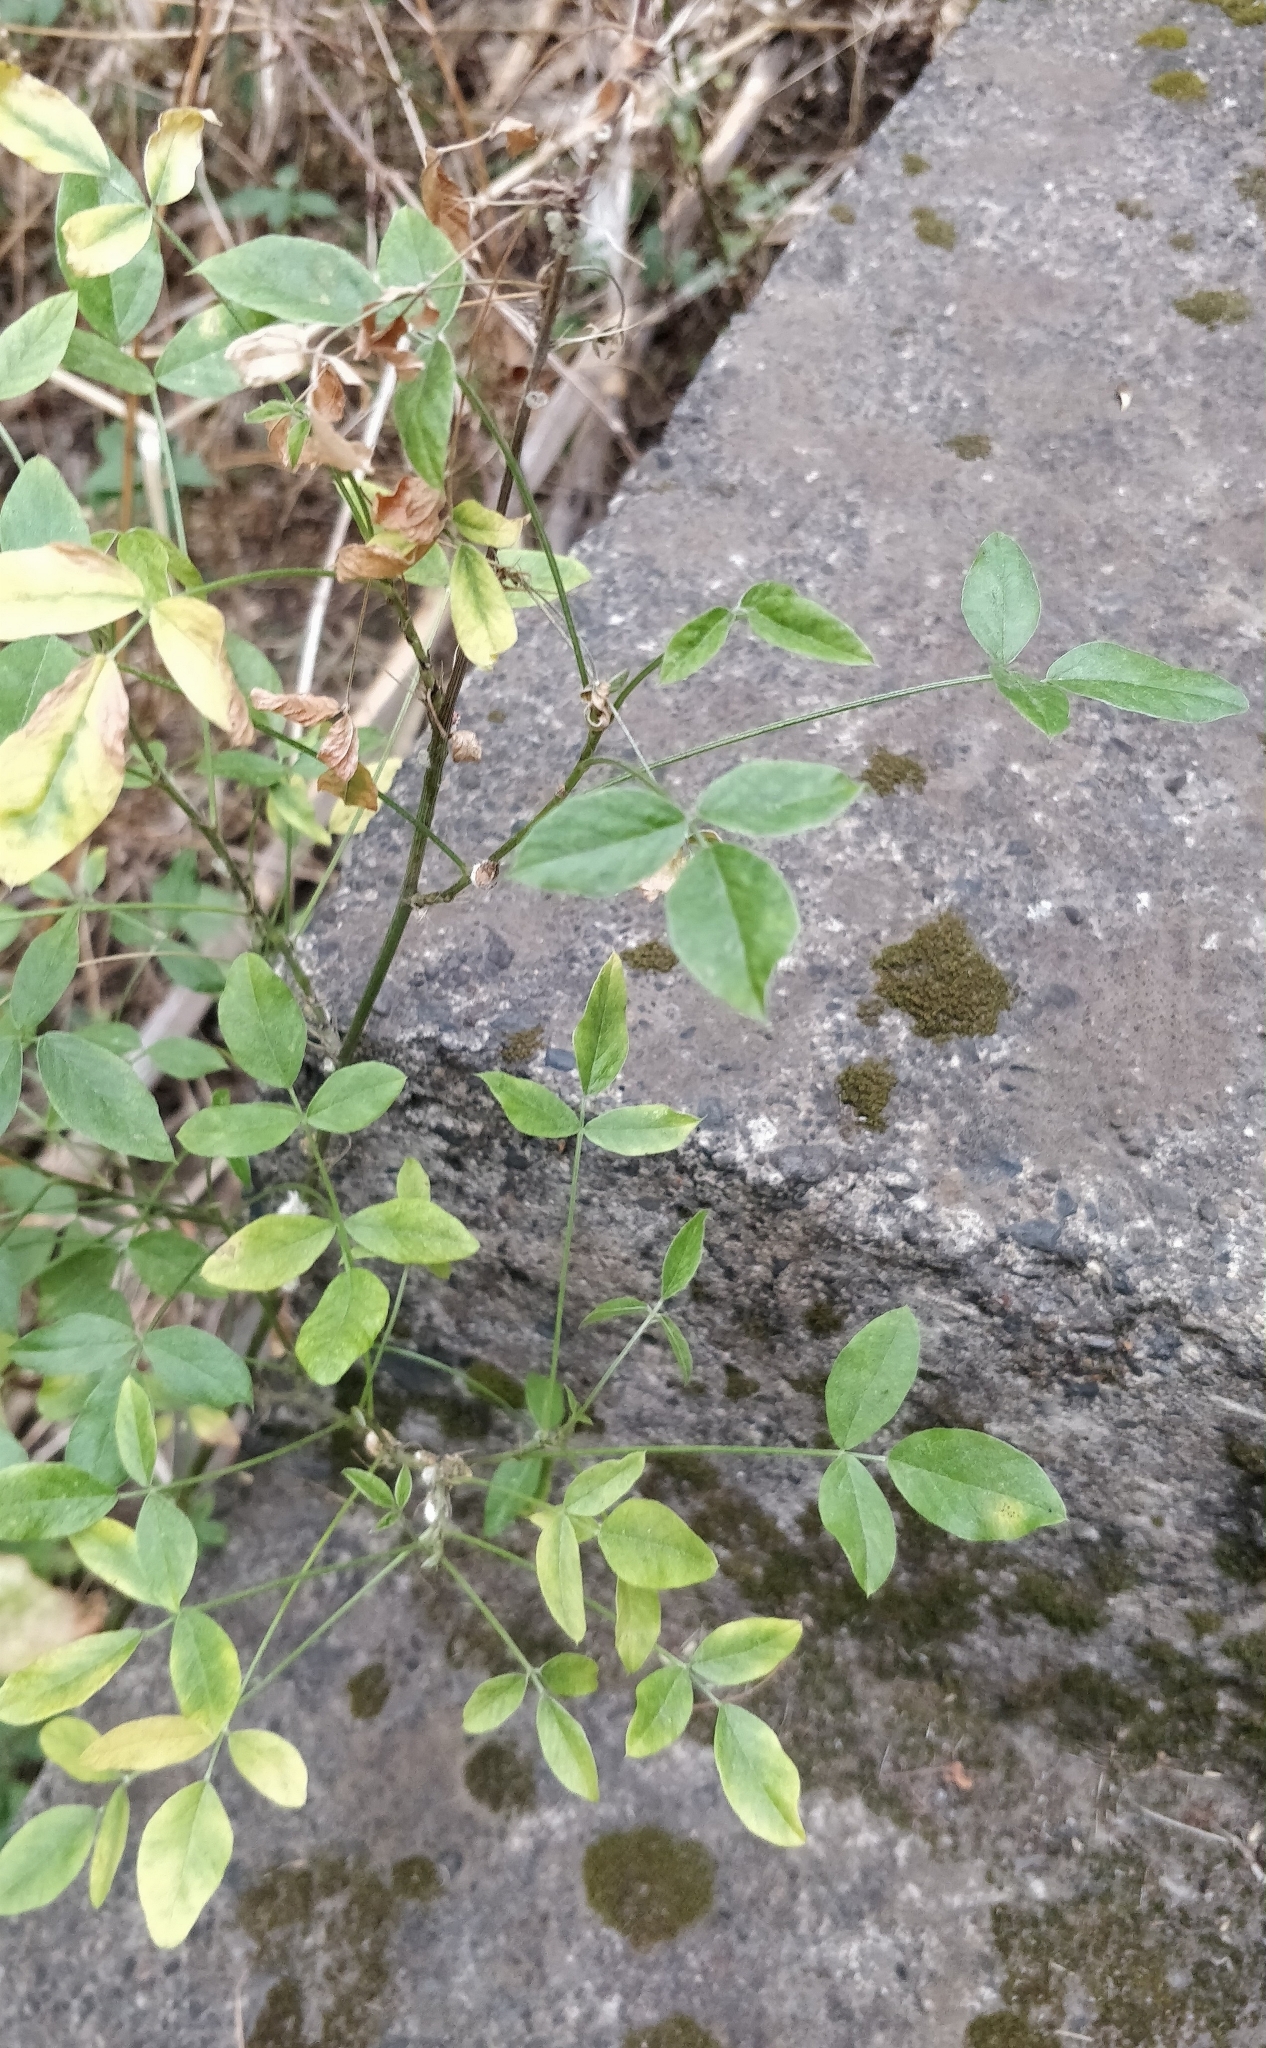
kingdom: Plantae
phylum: Tracheophyta
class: Magnoliopsida
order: Fabales
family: Fabaceae
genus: Bituminaria
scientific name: Bituminaria bituminosa
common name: Arabian pea
